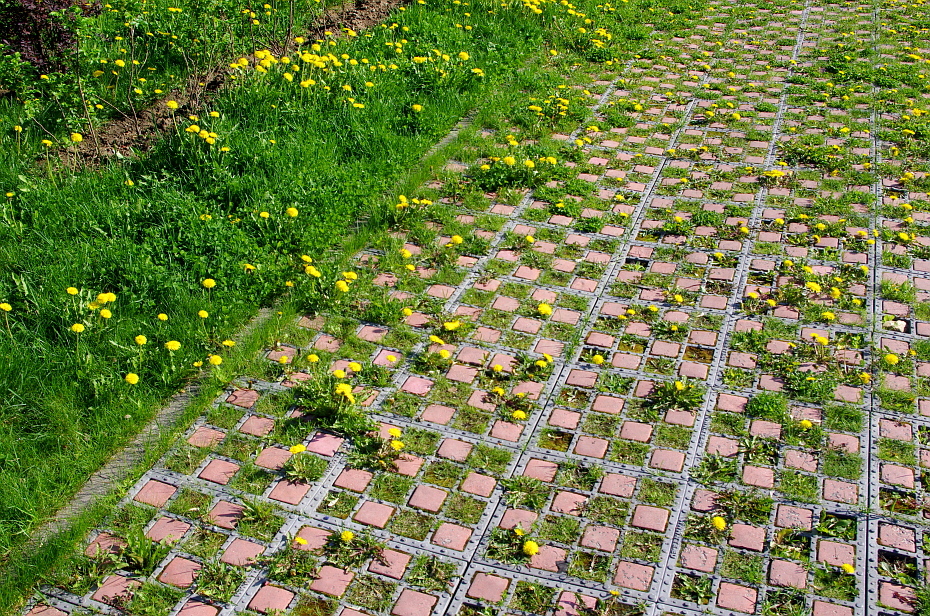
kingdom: Plantae
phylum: Tracheophyta
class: Magnoliopsida
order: Asterales
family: Asteraceae
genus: Taraxacum
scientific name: Taraxacum officinale
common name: Common dandelion
